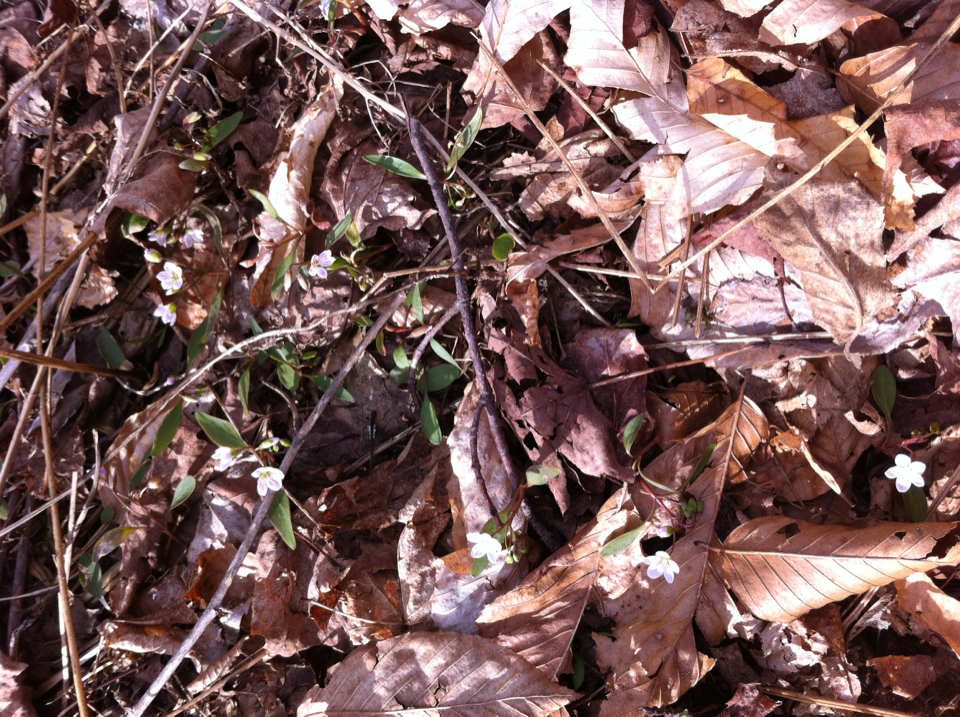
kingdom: Plantae
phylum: Tracheophyta
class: Magnoliopsida
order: Caryophyllales
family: Montiaceae
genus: Claytonia
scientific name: Claytonia caroliniana
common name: Carolina spring beauty
